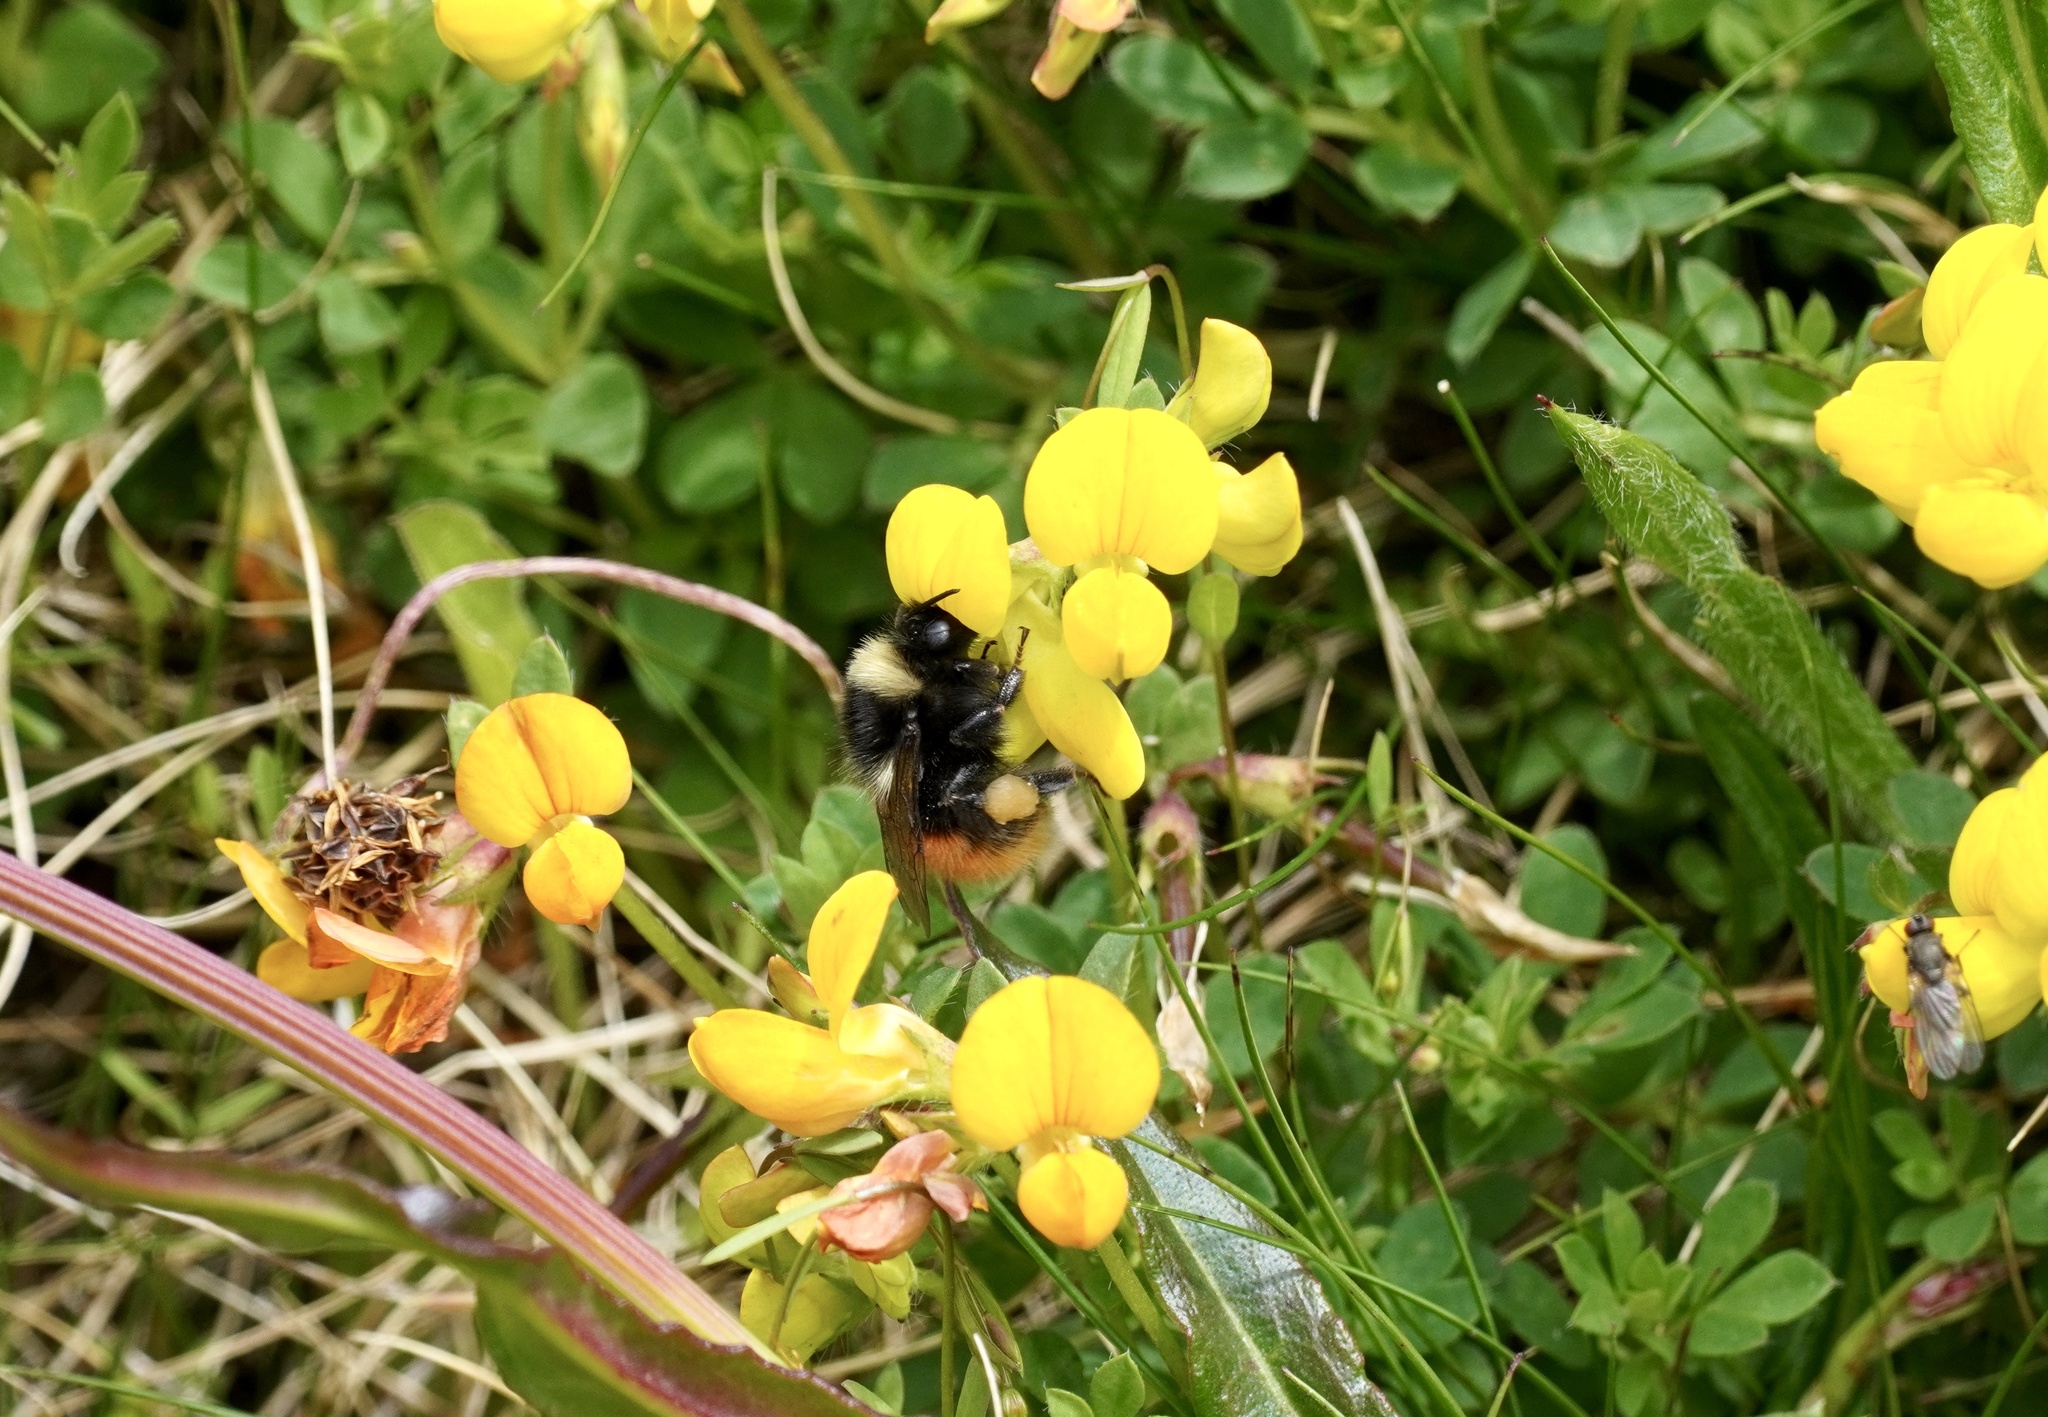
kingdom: Animalia
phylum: Arthropoda
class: Insecta
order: Hymenoptera
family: Apidae
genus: Bombus
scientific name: Bombus monticola
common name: Bilberry humble-bee
